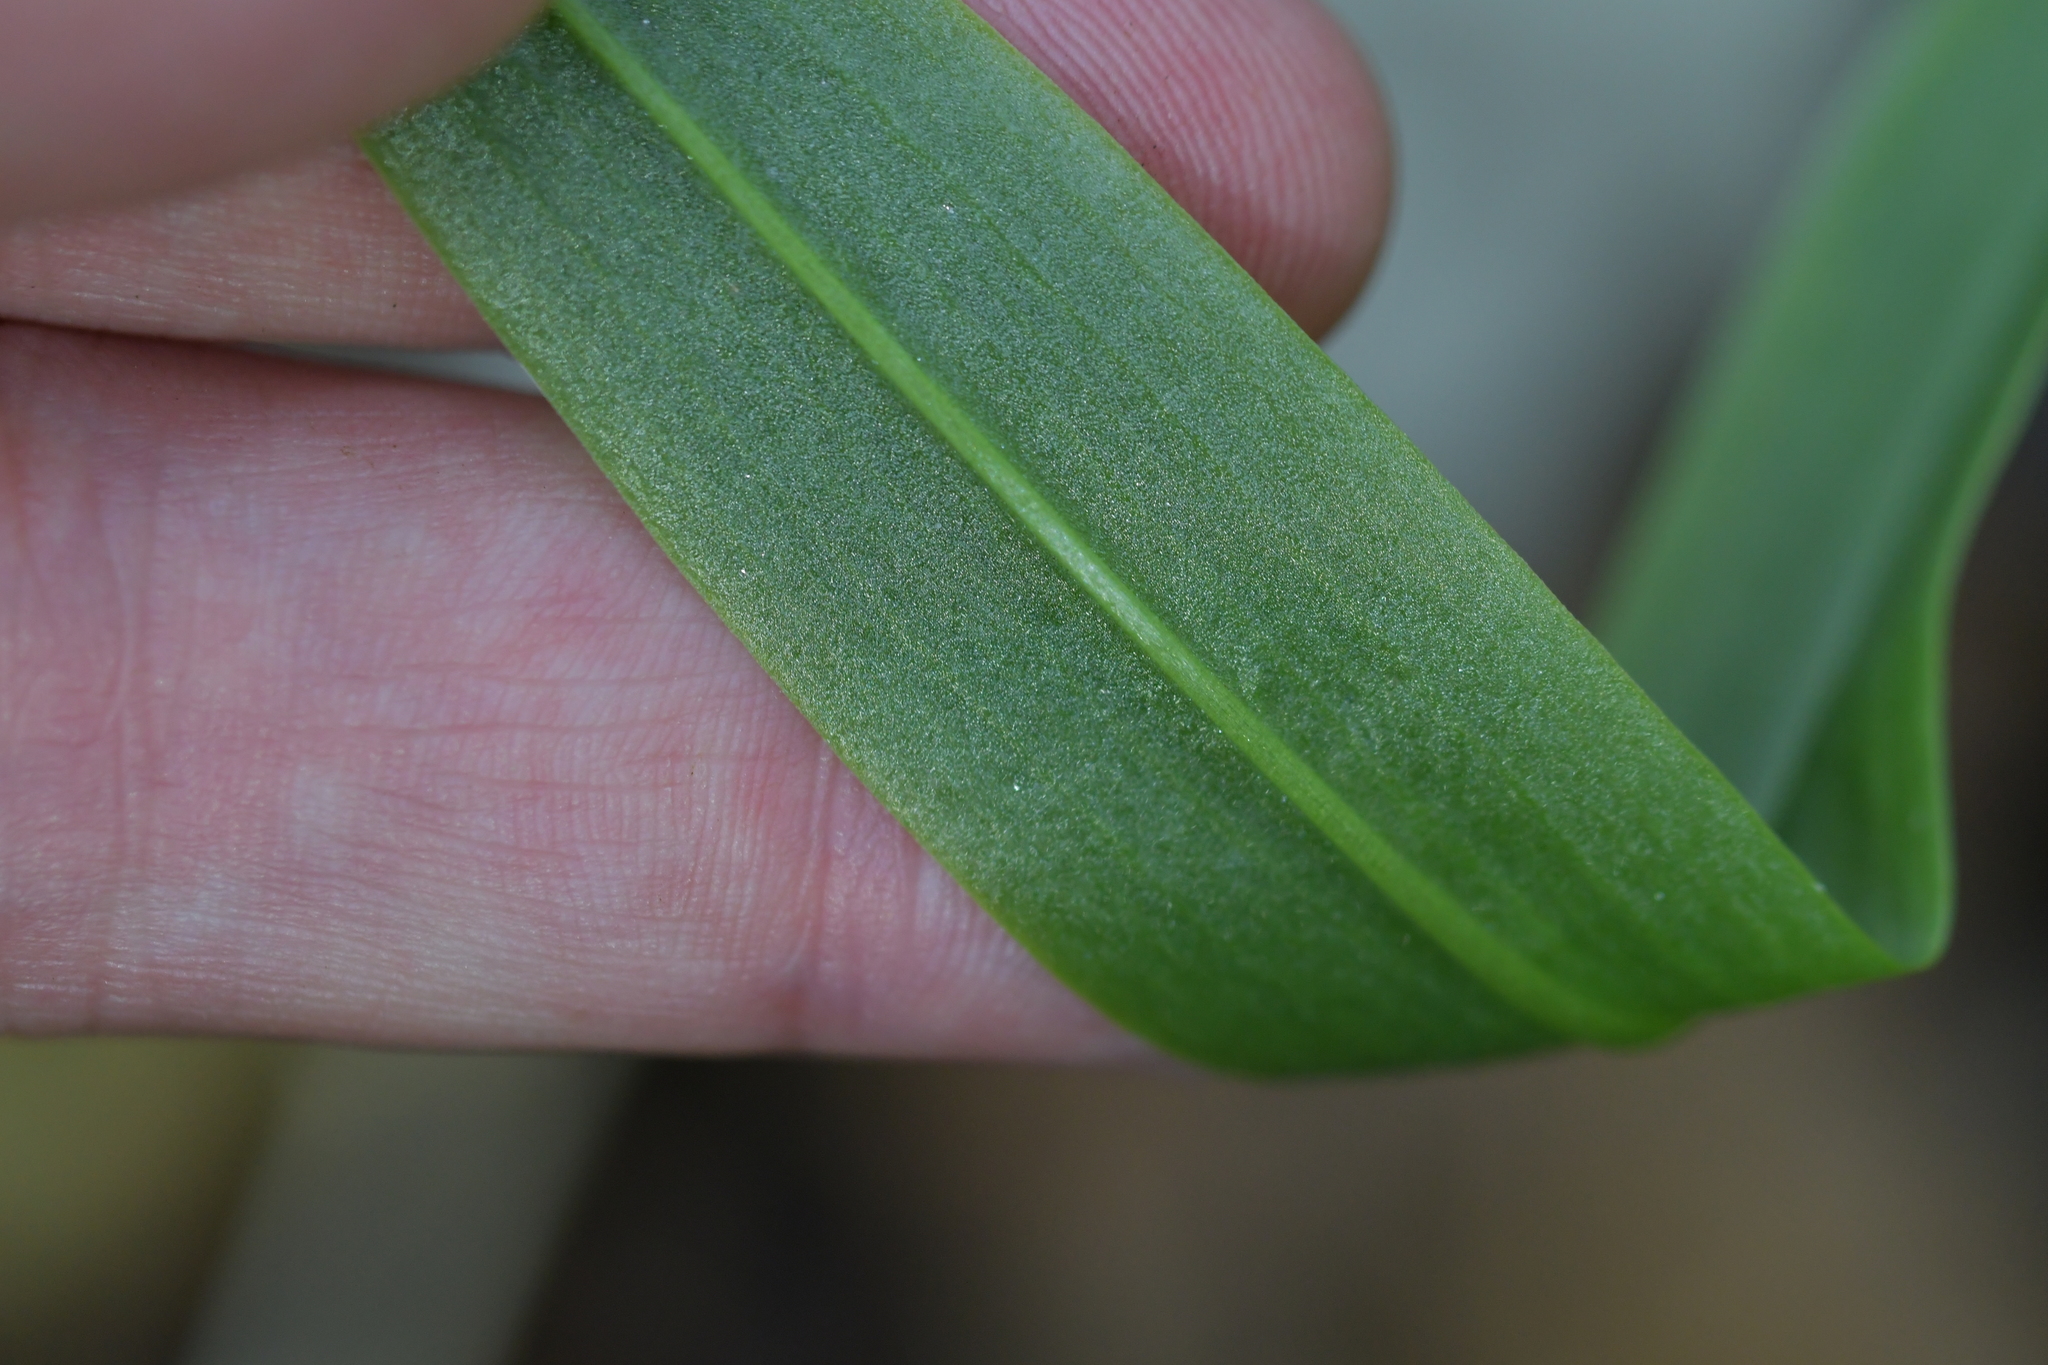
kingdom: Plantae
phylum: Tracheophyta
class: Liliopsida
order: Asparagales
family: Orchidaceae
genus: Pterostylis
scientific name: Pterostylis banksii
